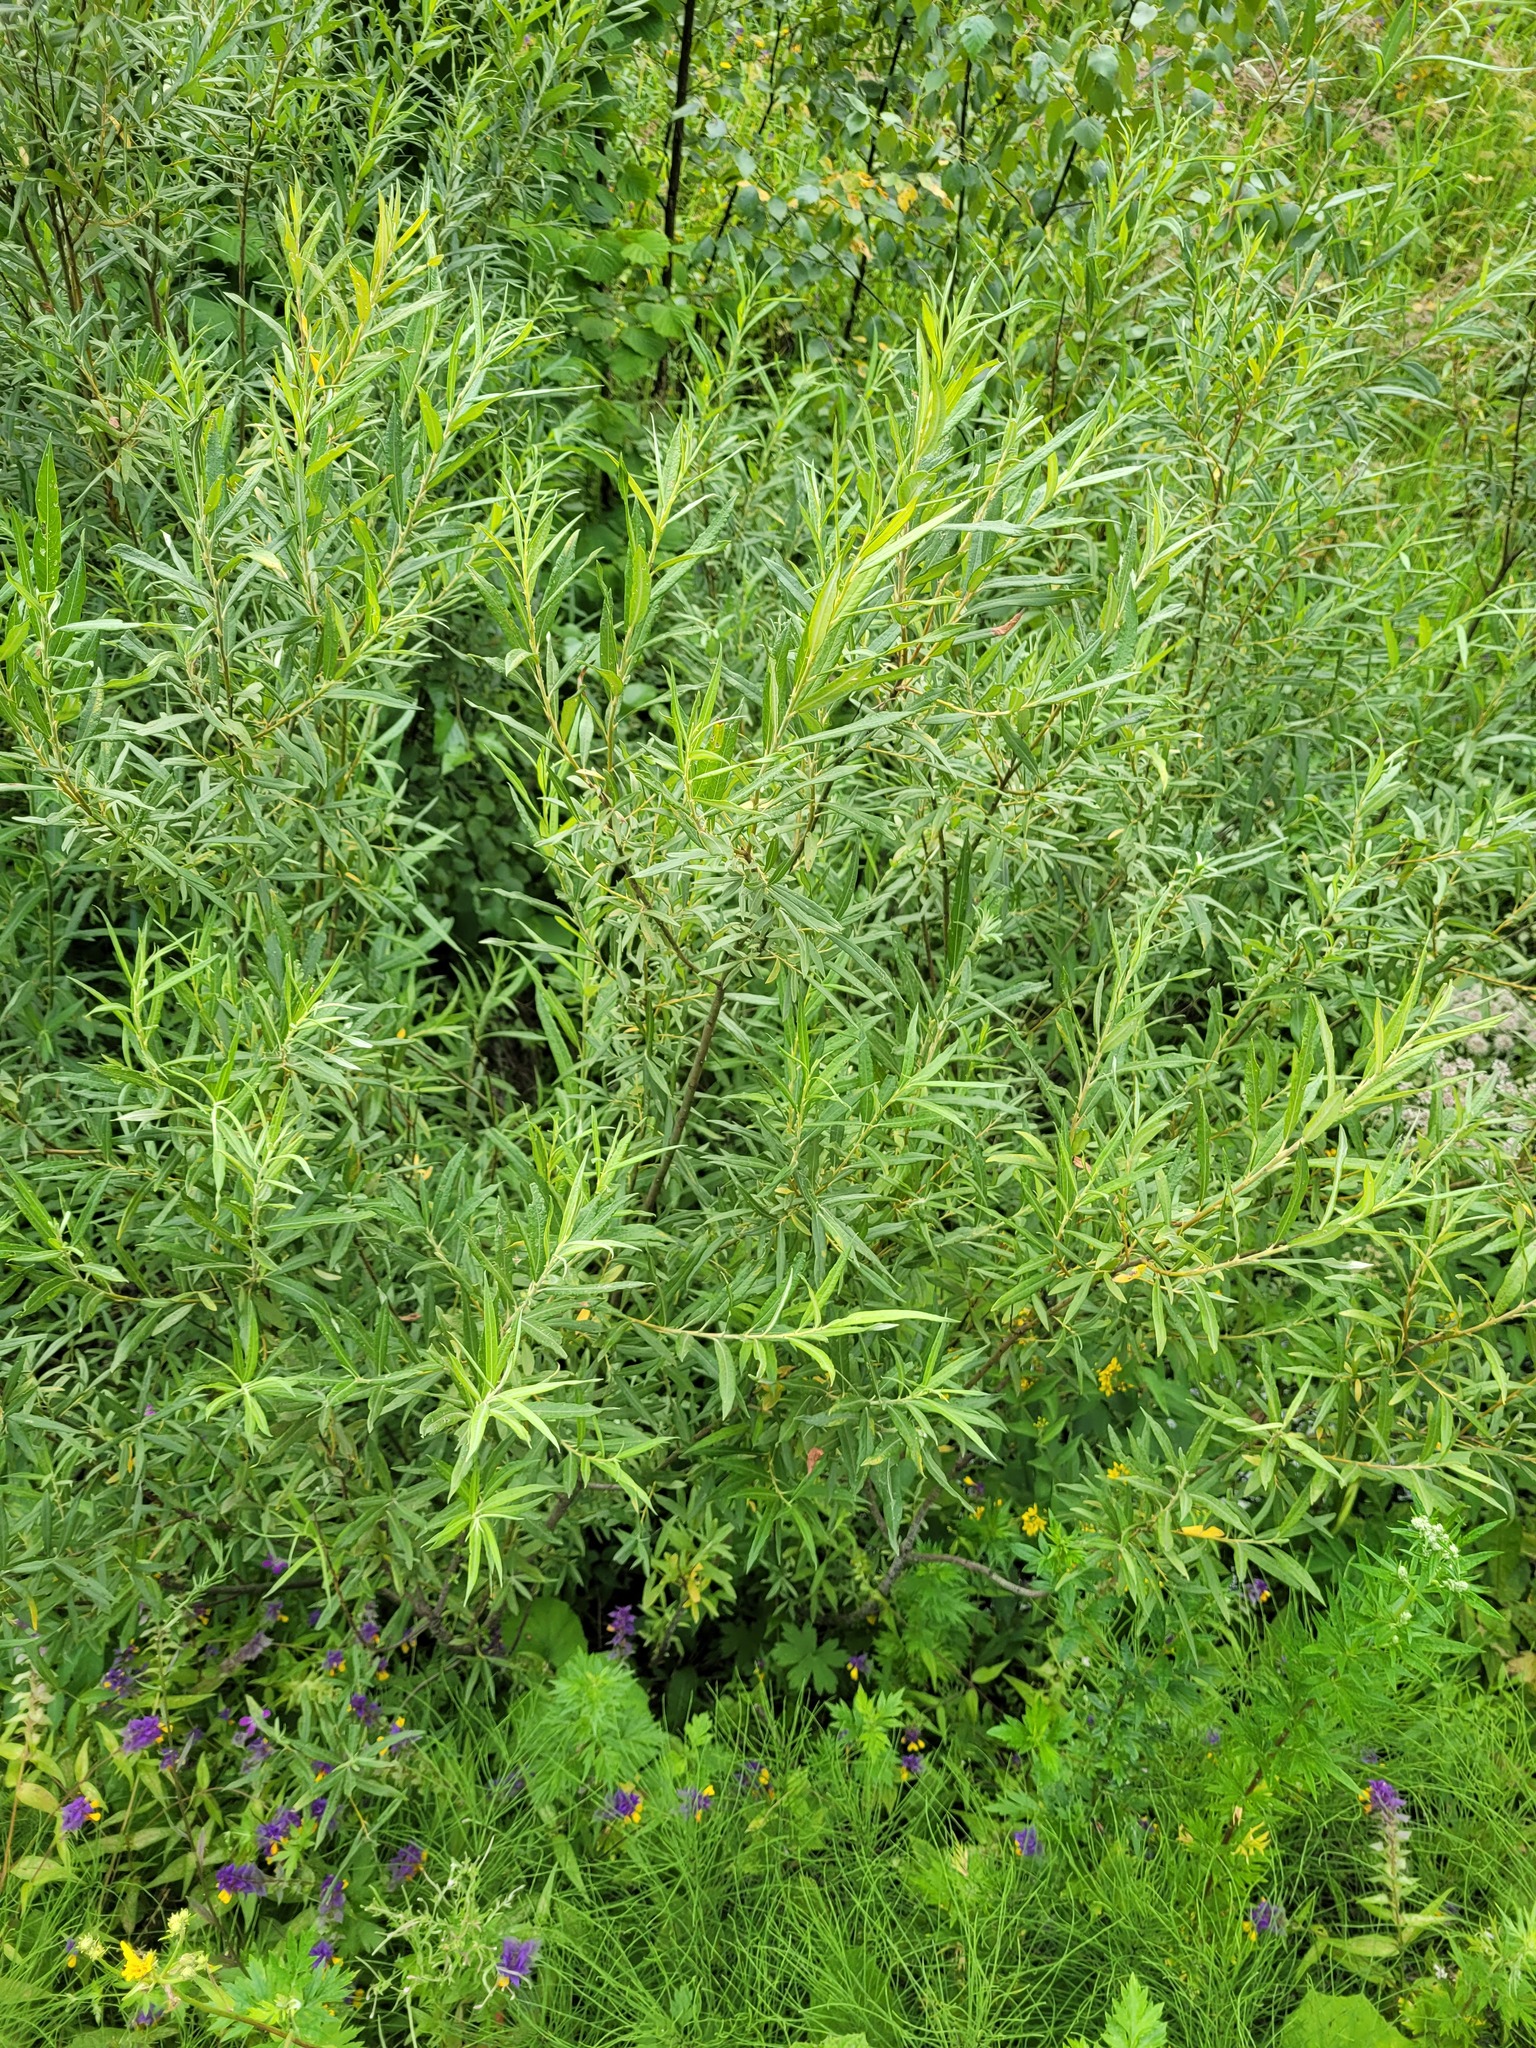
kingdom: Plantae
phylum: Tracheophyta
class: Magnoliopsida
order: Malpighiales
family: Salicaceae
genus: Salix
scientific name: Salix viminalis
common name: Osier
